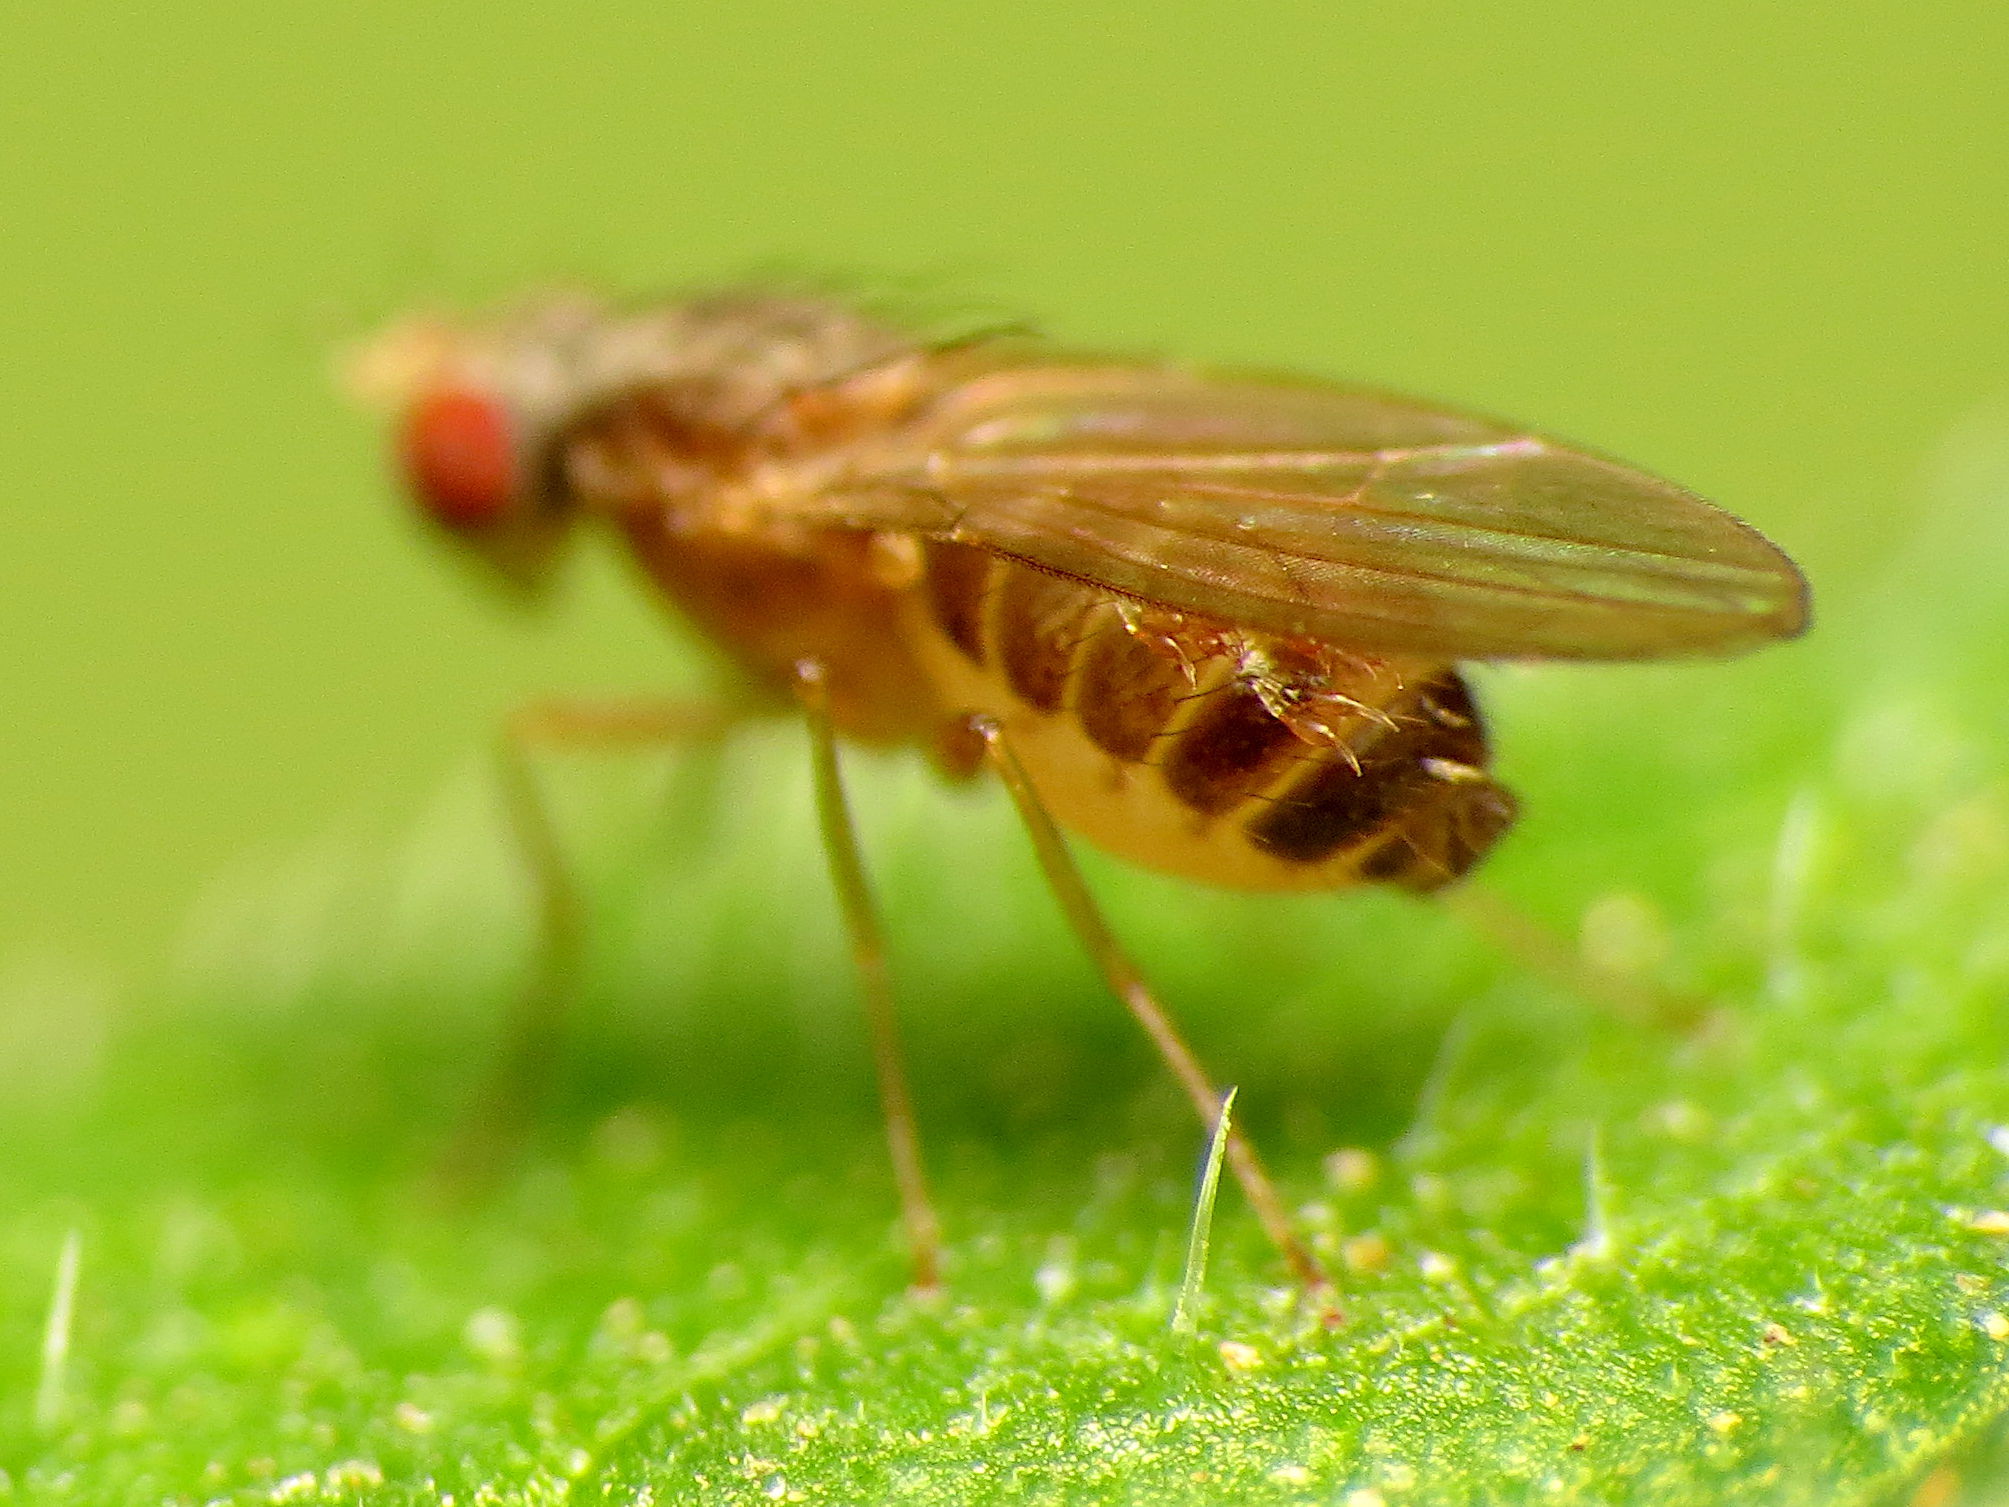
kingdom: Fungi
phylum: Ascomycota
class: Laboulbeniomycetes
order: Laboulbeniales
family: Laboulbeniaceae
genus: Appendiculina
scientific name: Appendiculina scaptomyzae
